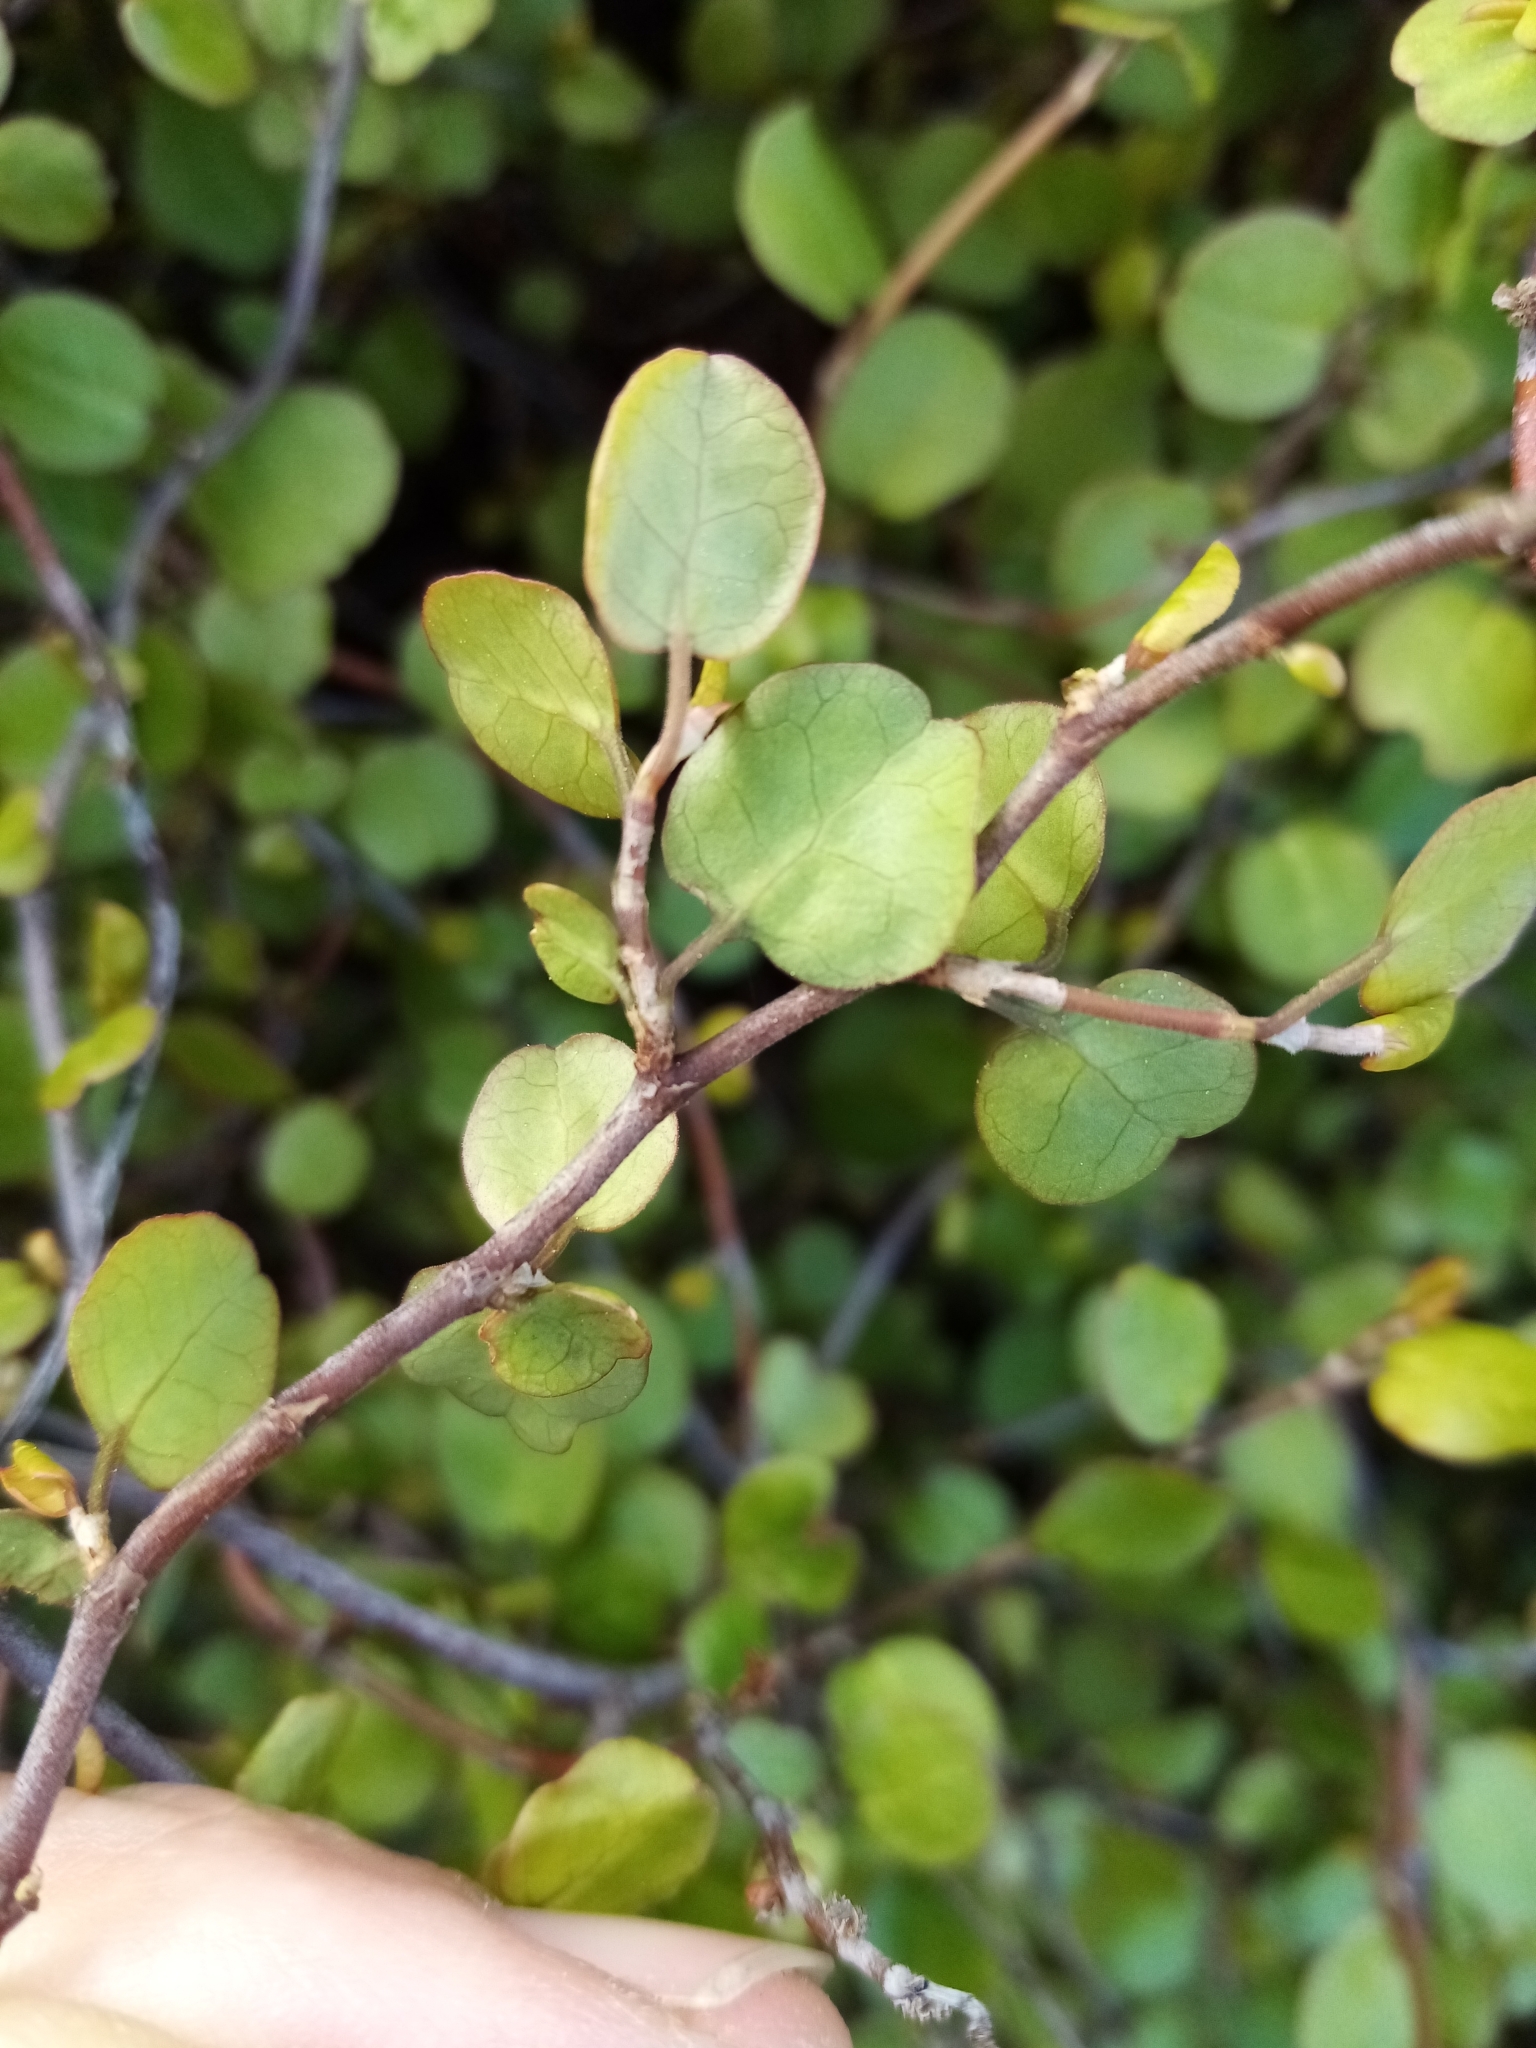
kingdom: Plantae
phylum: Tracheophyta
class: Magnoliopsida
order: Caryophyllales
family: Polygonaceae
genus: Muehlenbeckia
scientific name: Muehlenbeckia complexa
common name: Wireplant
